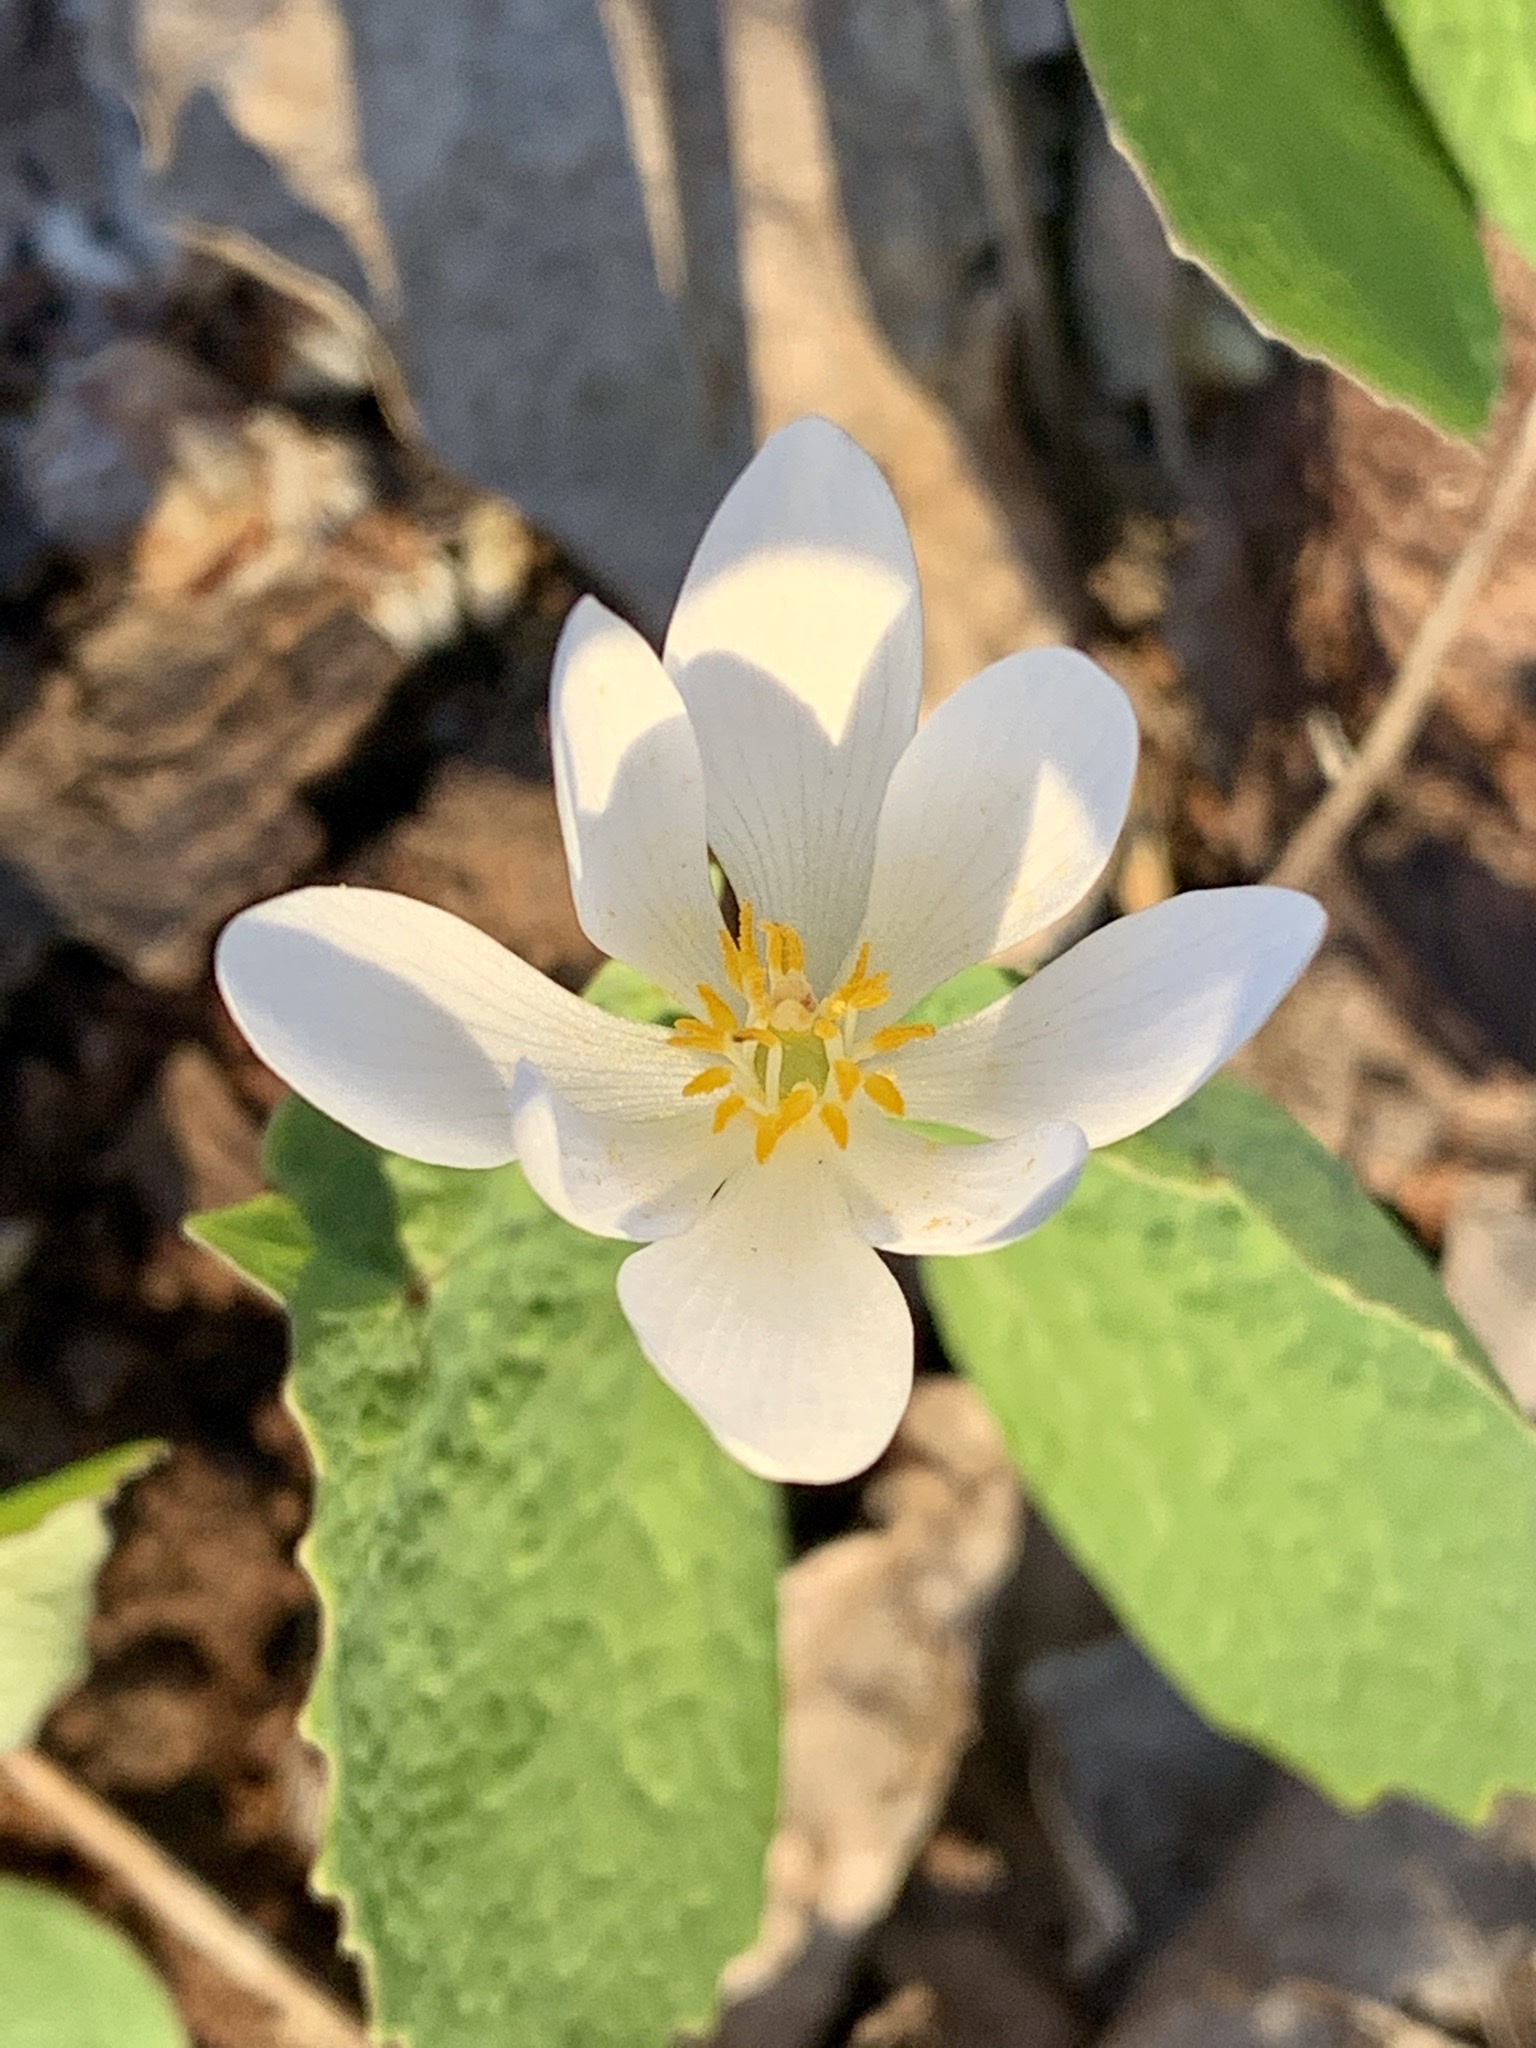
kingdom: Plantae
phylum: Tracheophyta
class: Magnoliopsida
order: Ranunculales
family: Papaveraceae
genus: Sanguinaria
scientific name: Sanguinaria canadensis
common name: Bloodroot
